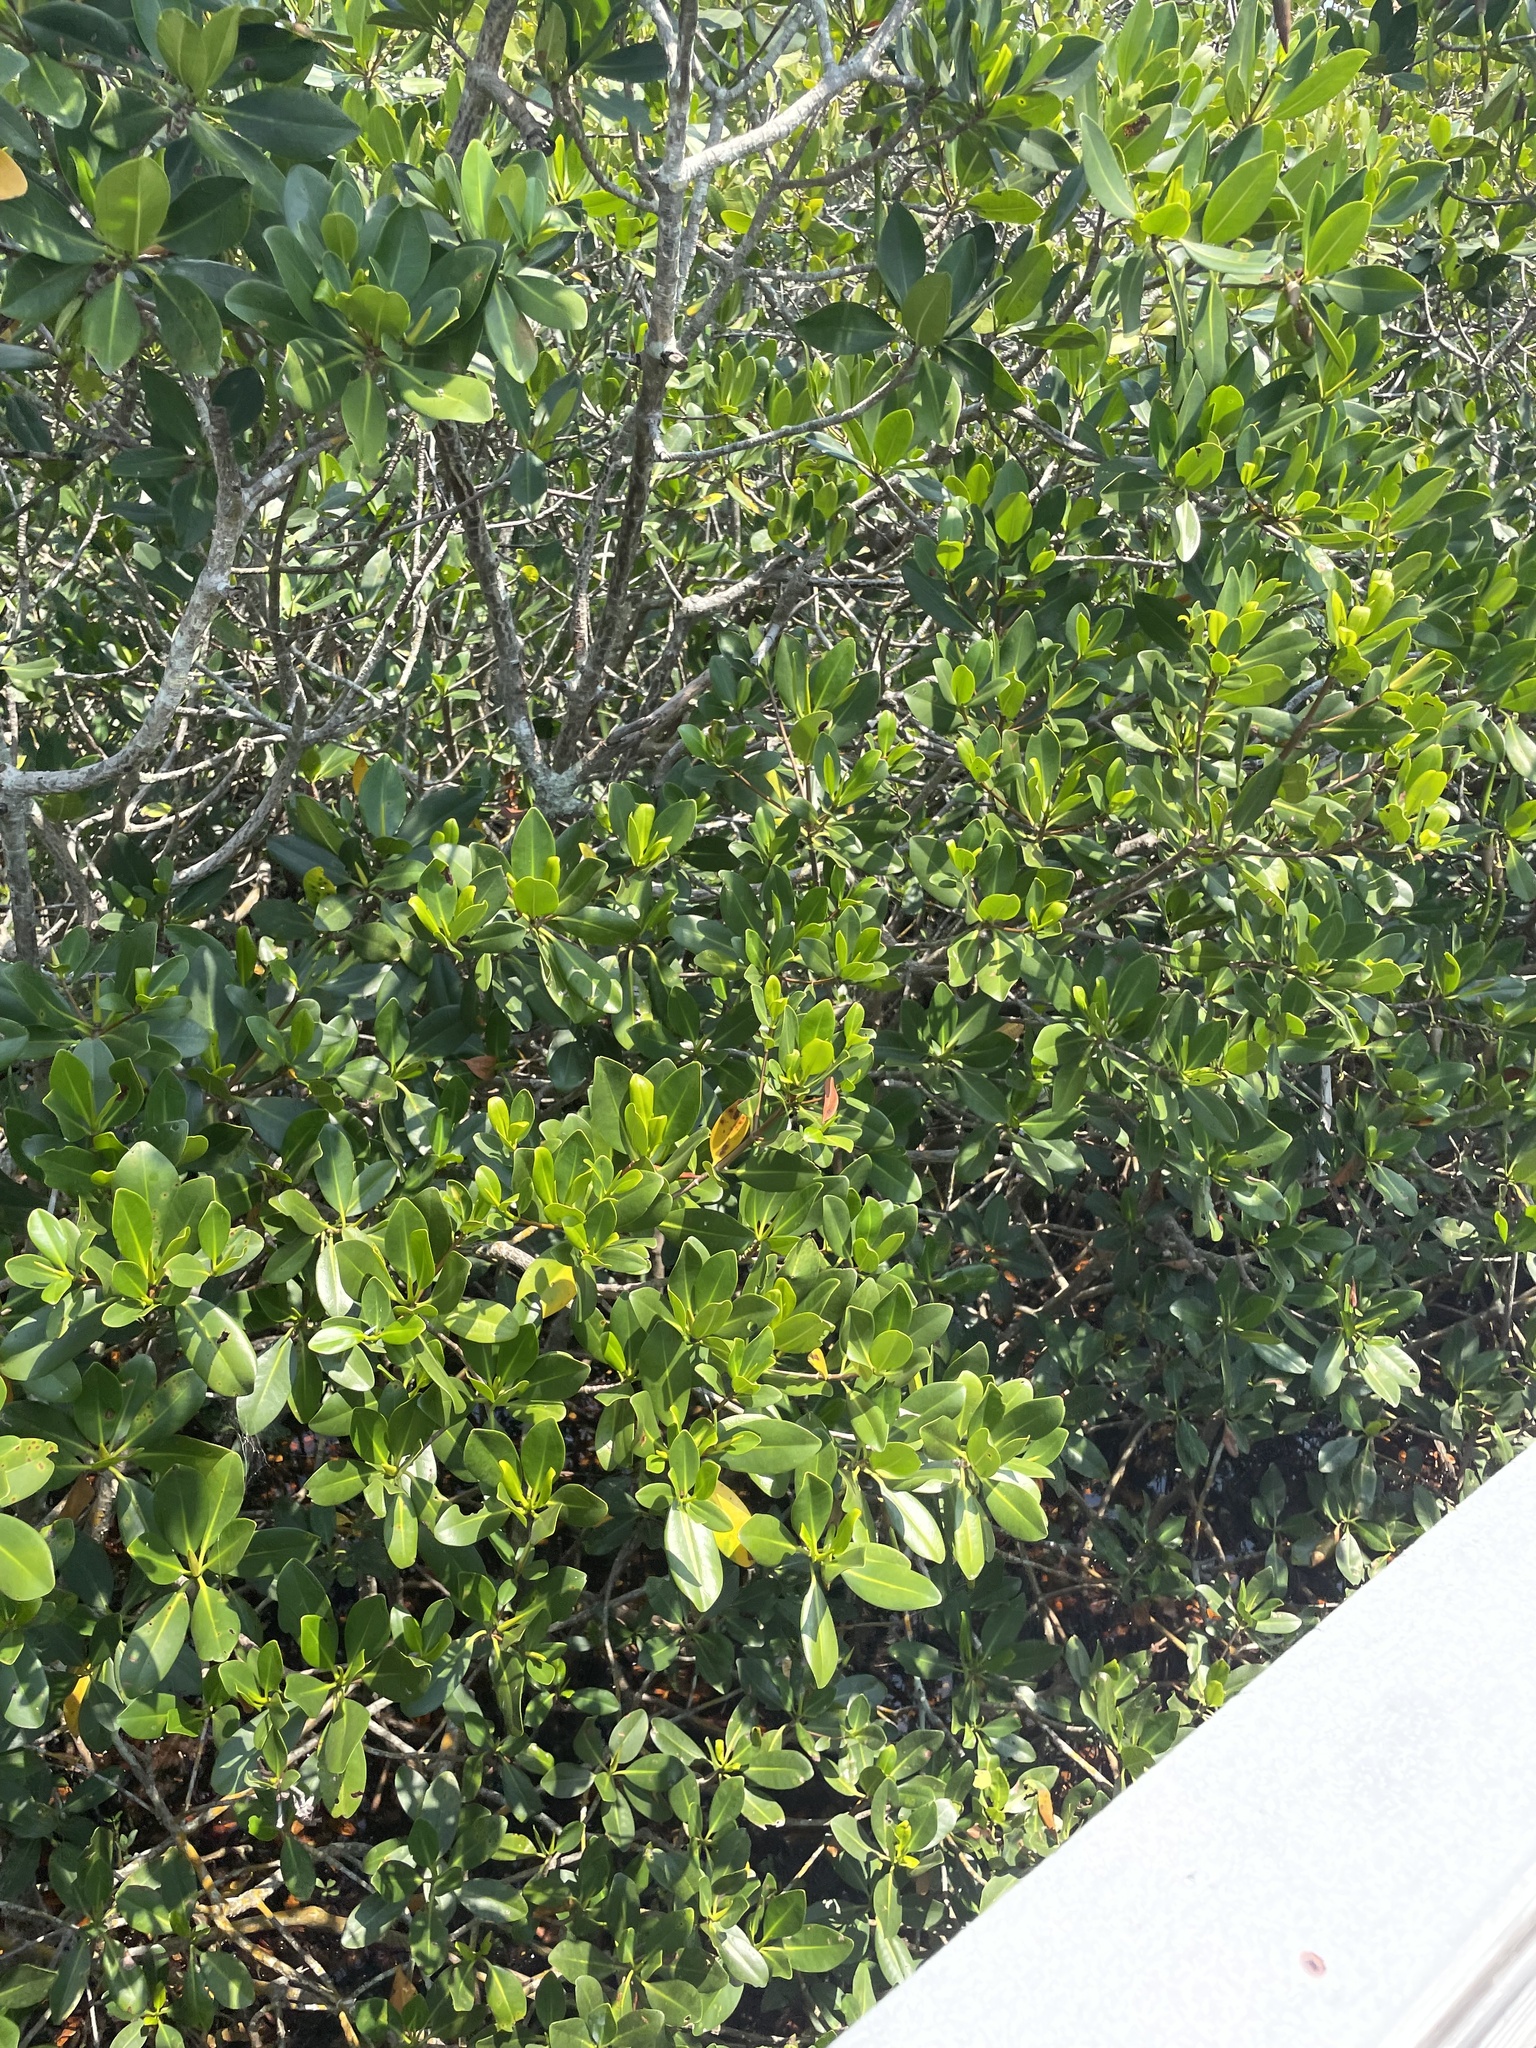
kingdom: Plantae
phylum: Tracheophyta
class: Magnoliopsida
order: Malpighiales
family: Rhizophoraceae
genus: Rhizophora
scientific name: Rhizophora mangle
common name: Red mangrove
